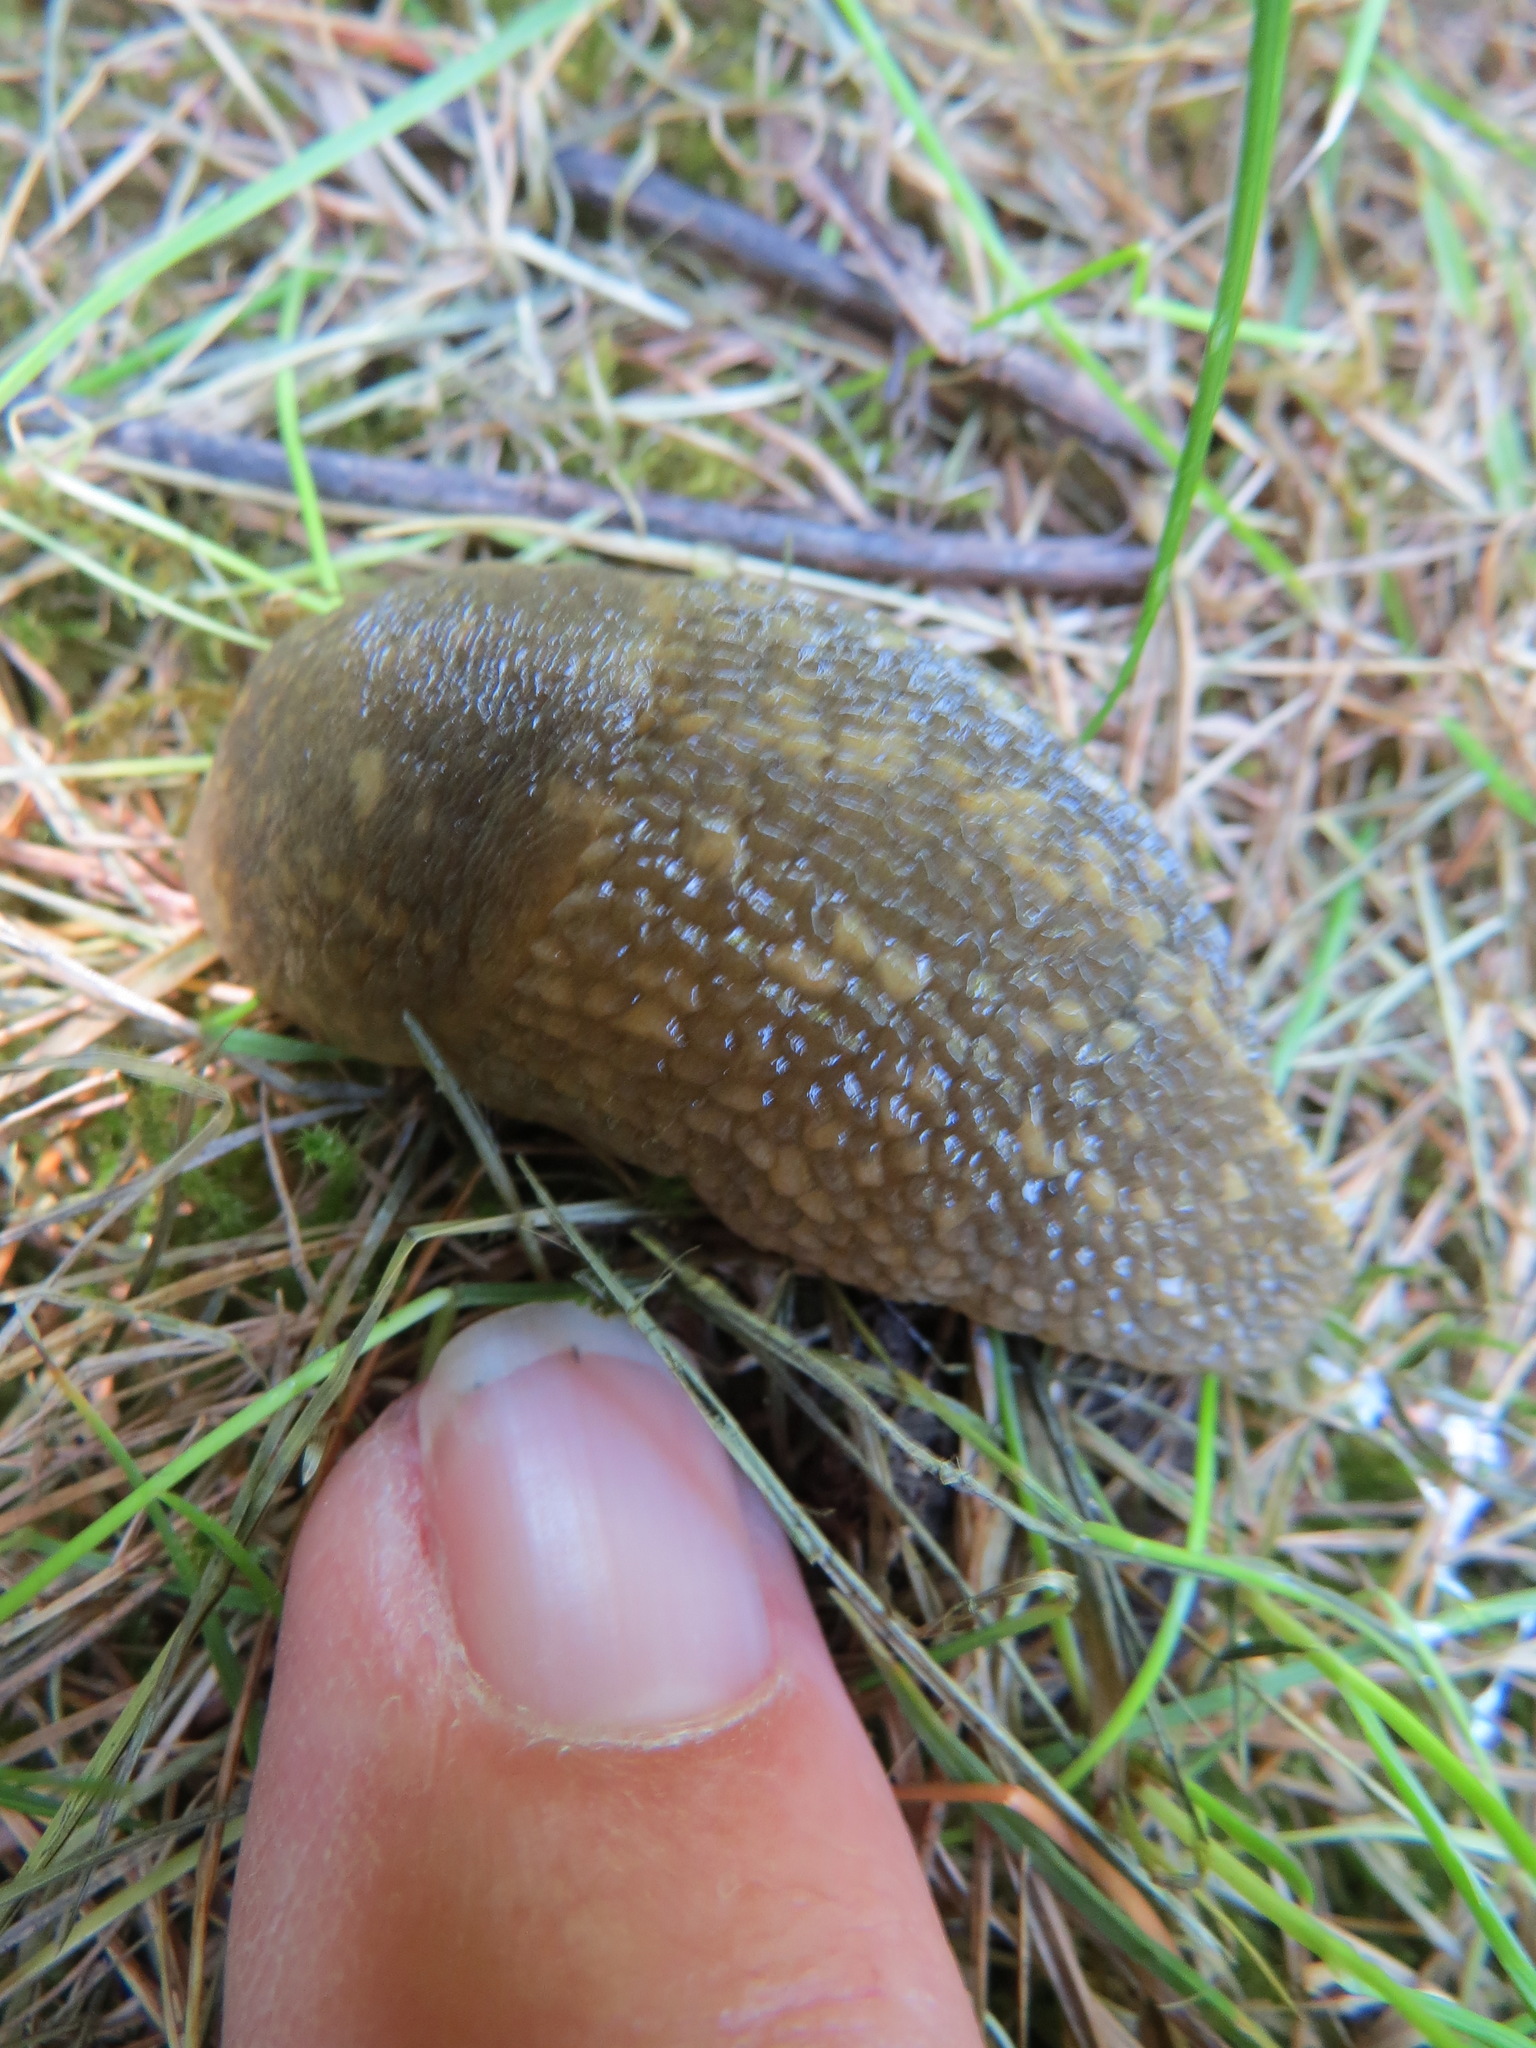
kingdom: Animalia
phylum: Mollusca
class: Gastropoda
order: Stylommatophora
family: Limacidae
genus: Limacus
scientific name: Limacus flavus
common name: Yellow gardenslug
